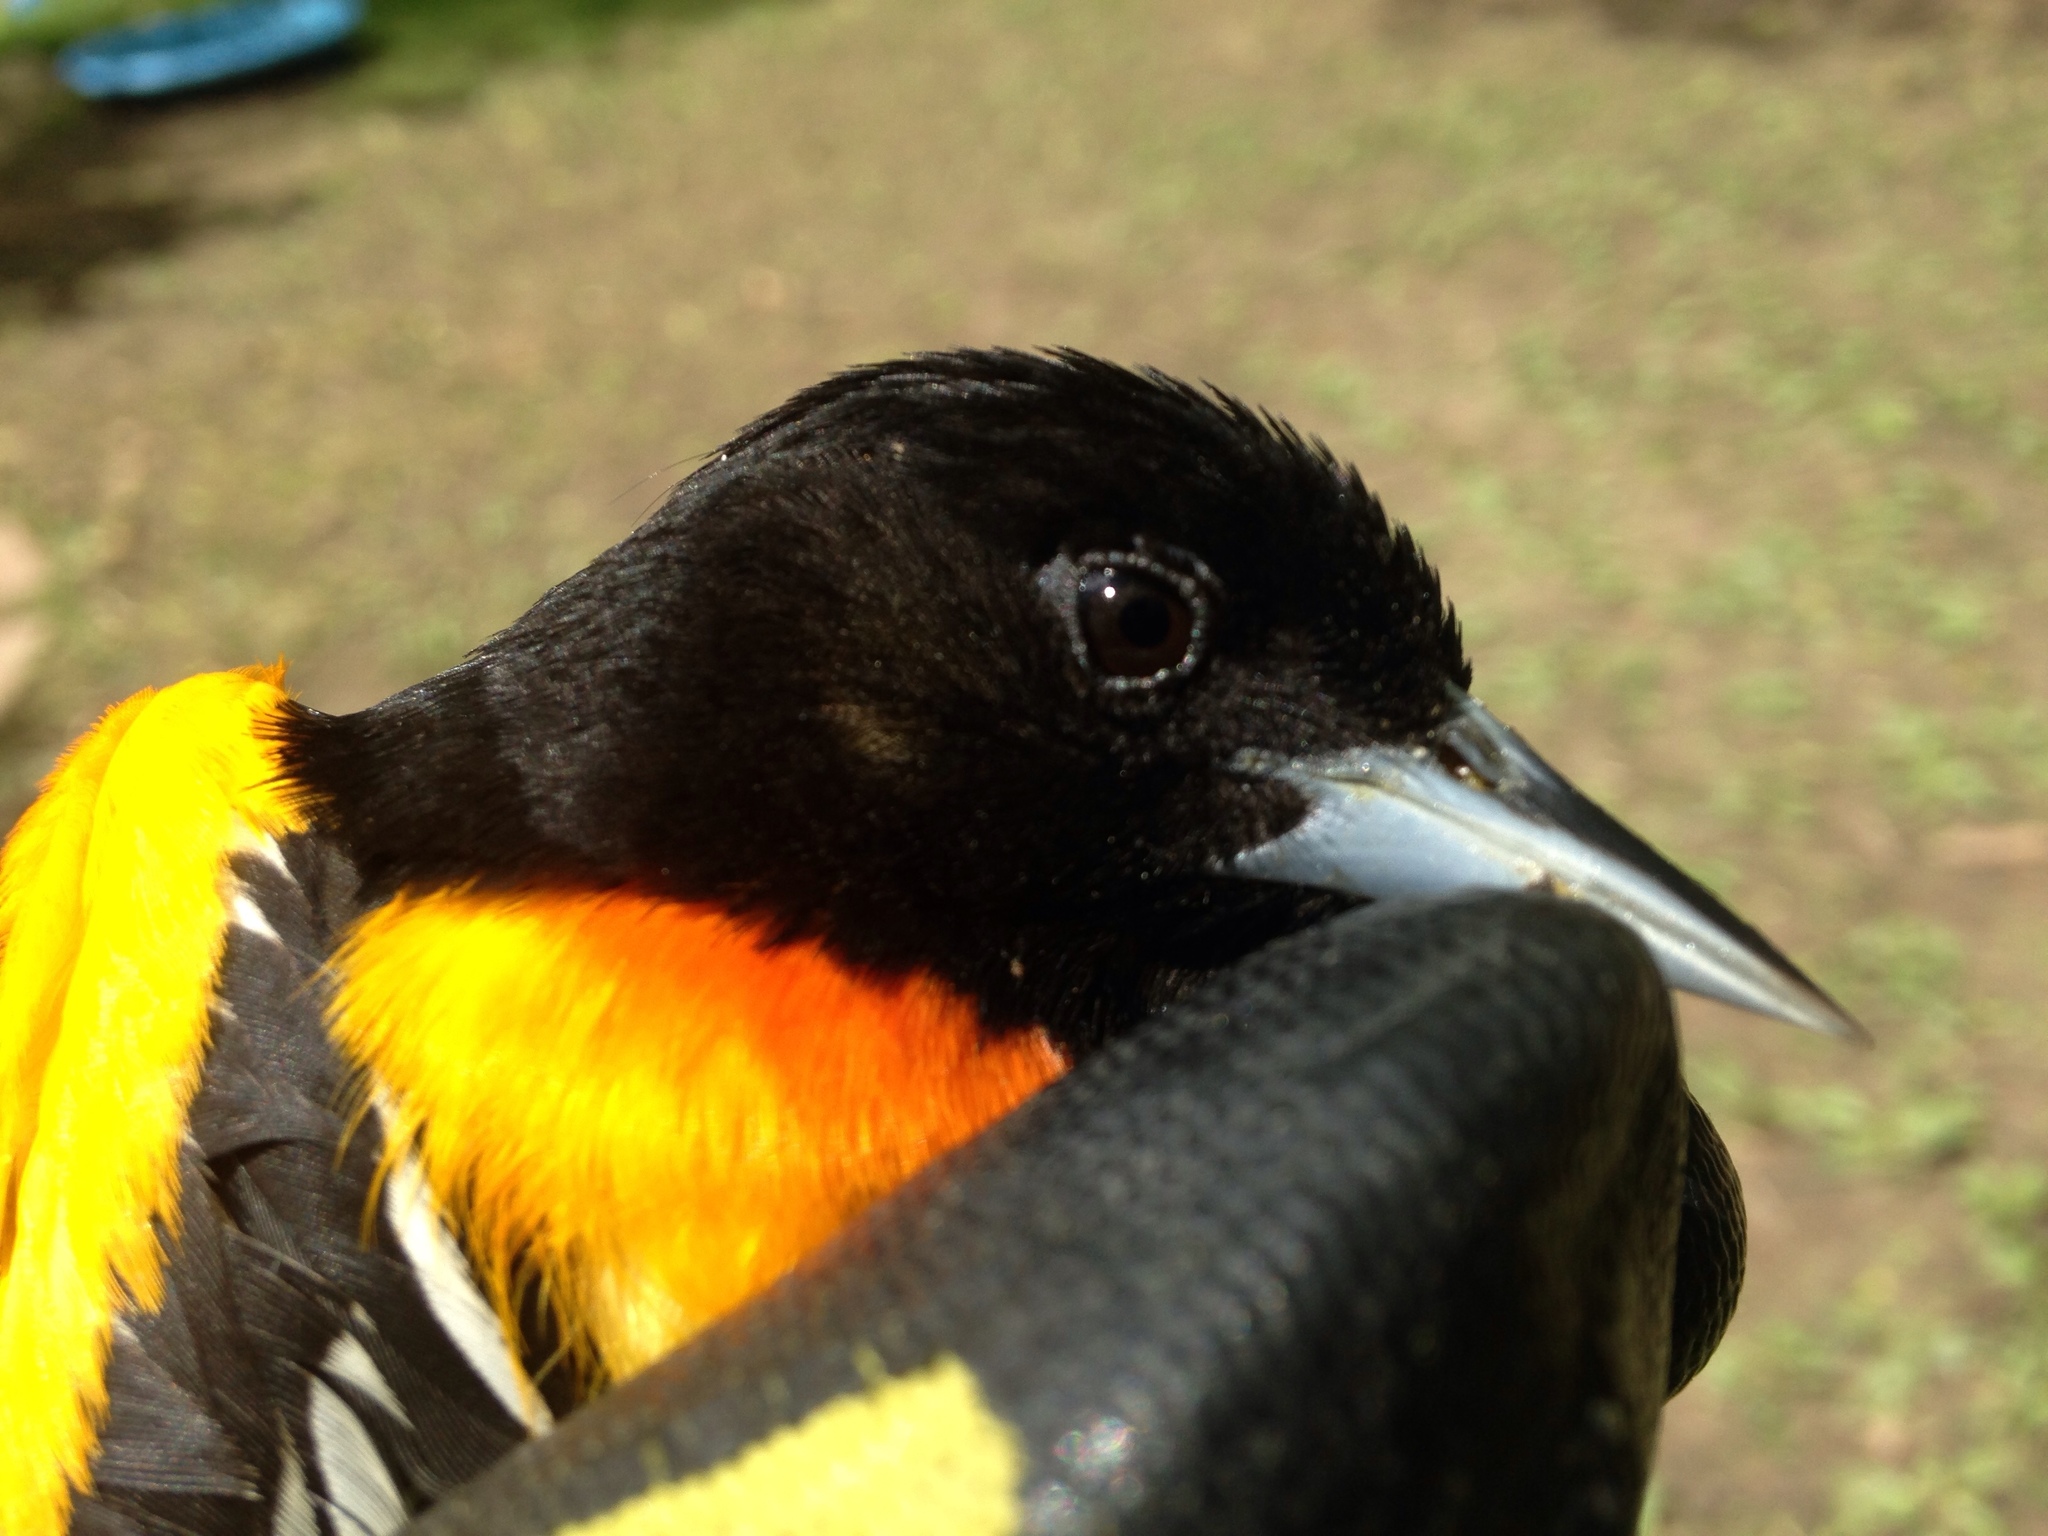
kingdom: Animalia
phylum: Chordata
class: Aves
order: Passeriformes
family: Icteridae
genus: Icterus
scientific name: Icterus galbula
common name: Baltimore oriole
